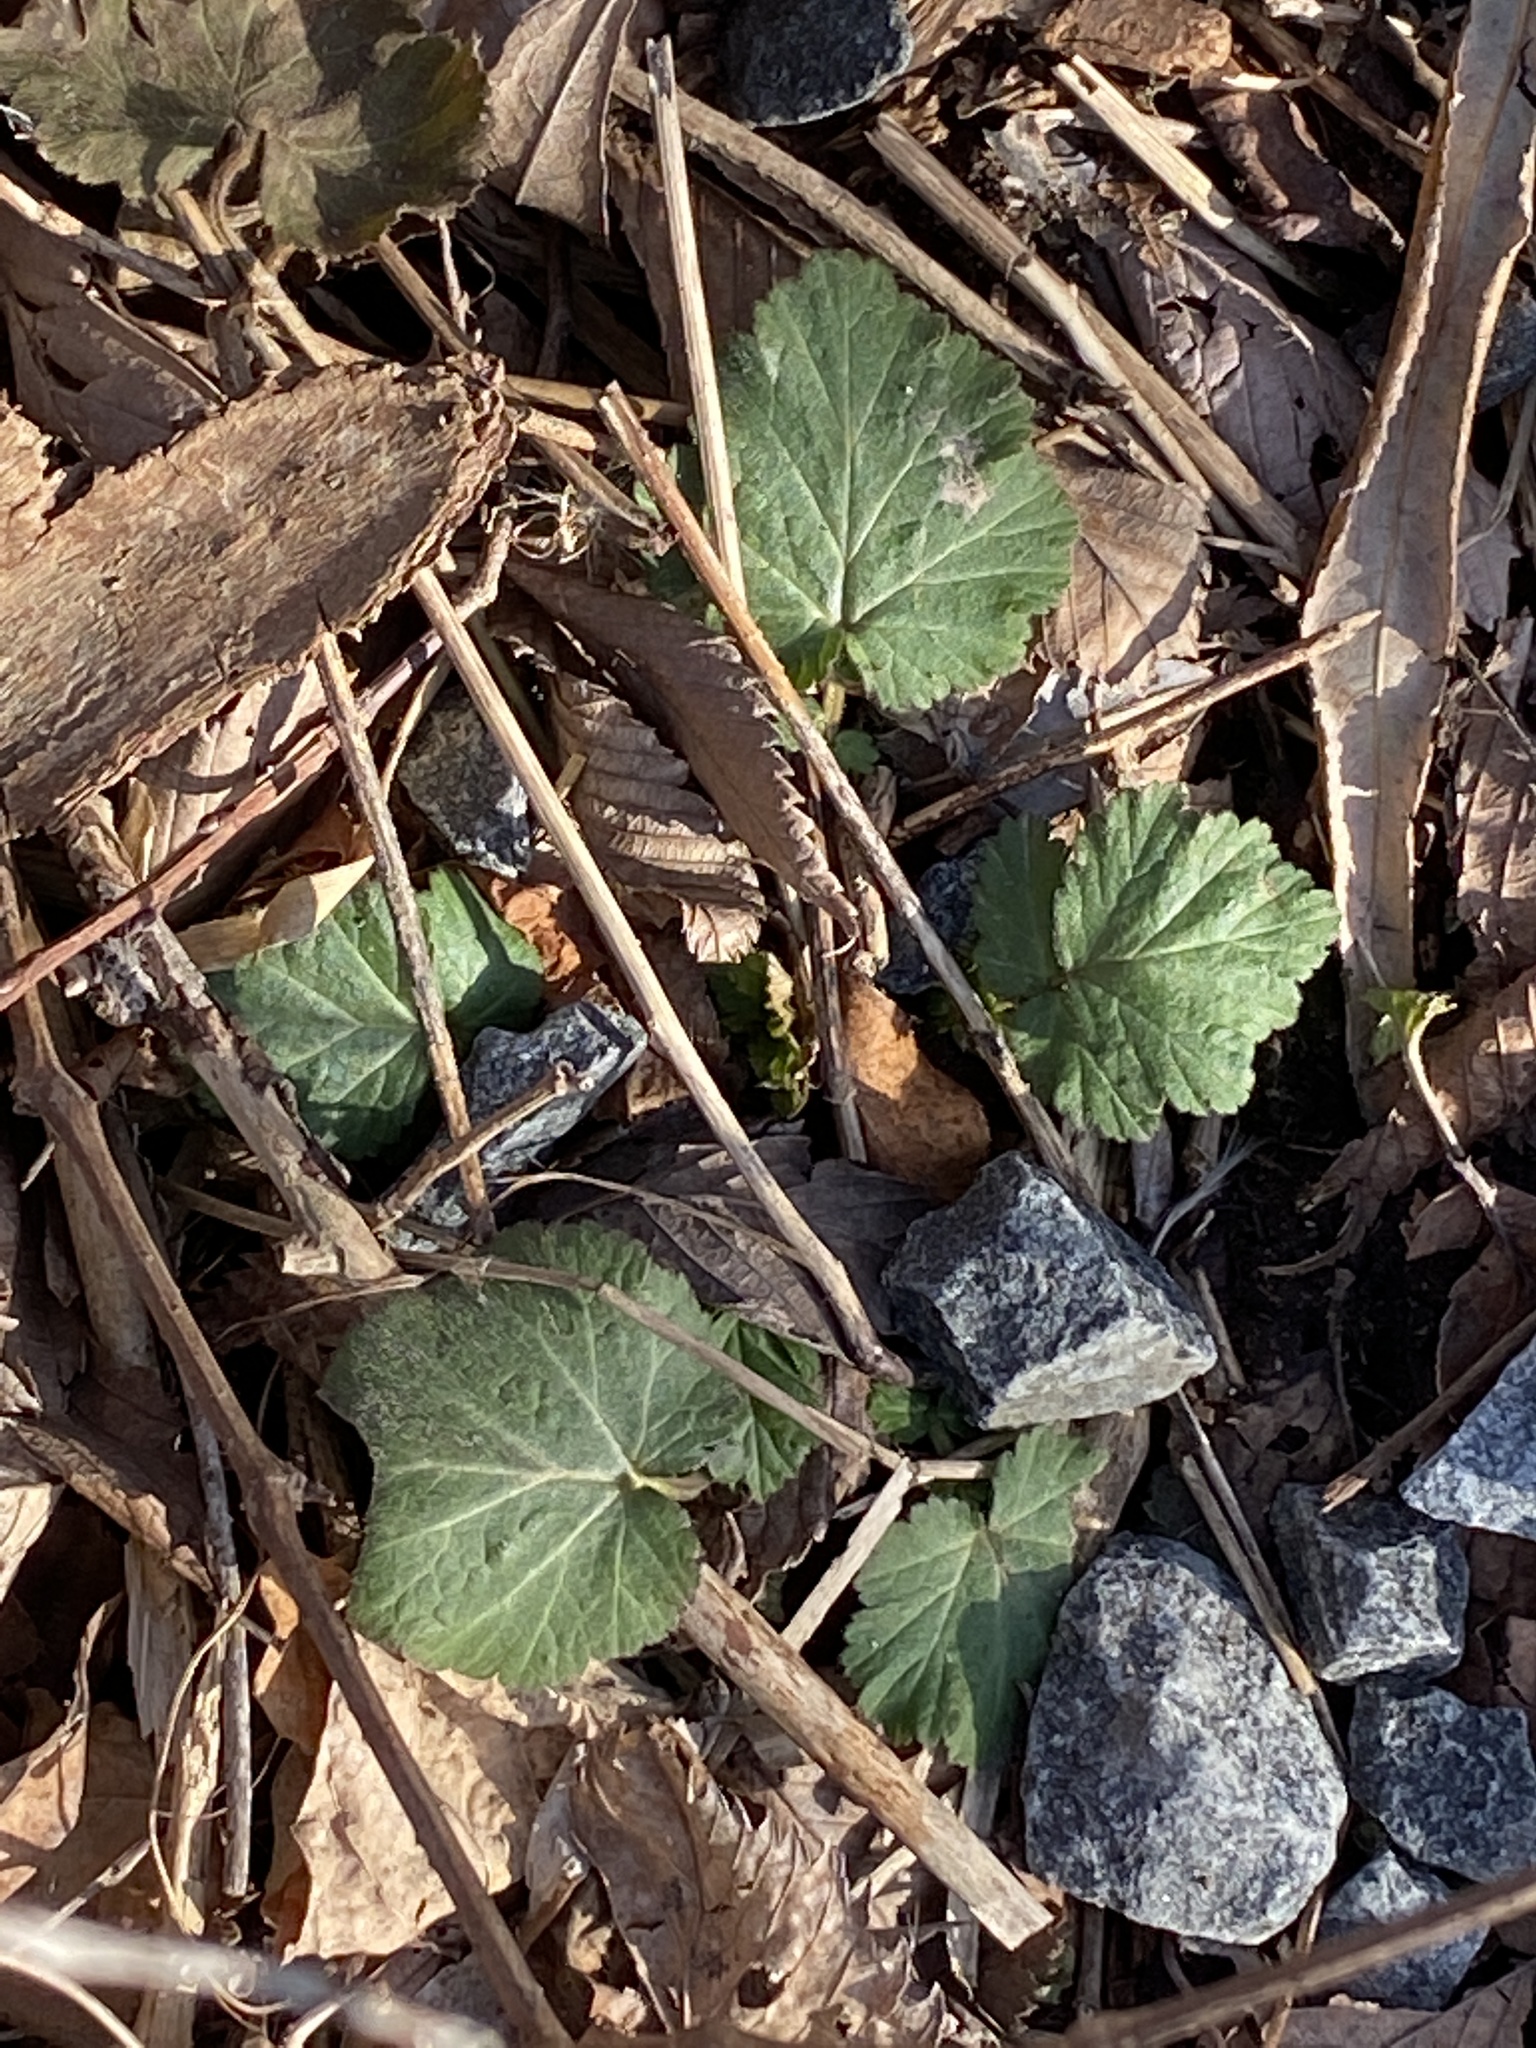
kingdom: Plantae
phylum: Tracheophyta
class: Magnoliopsida
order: Rosales
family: Rosaceae
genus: Geum
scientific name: Geum canadense
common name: White avens
